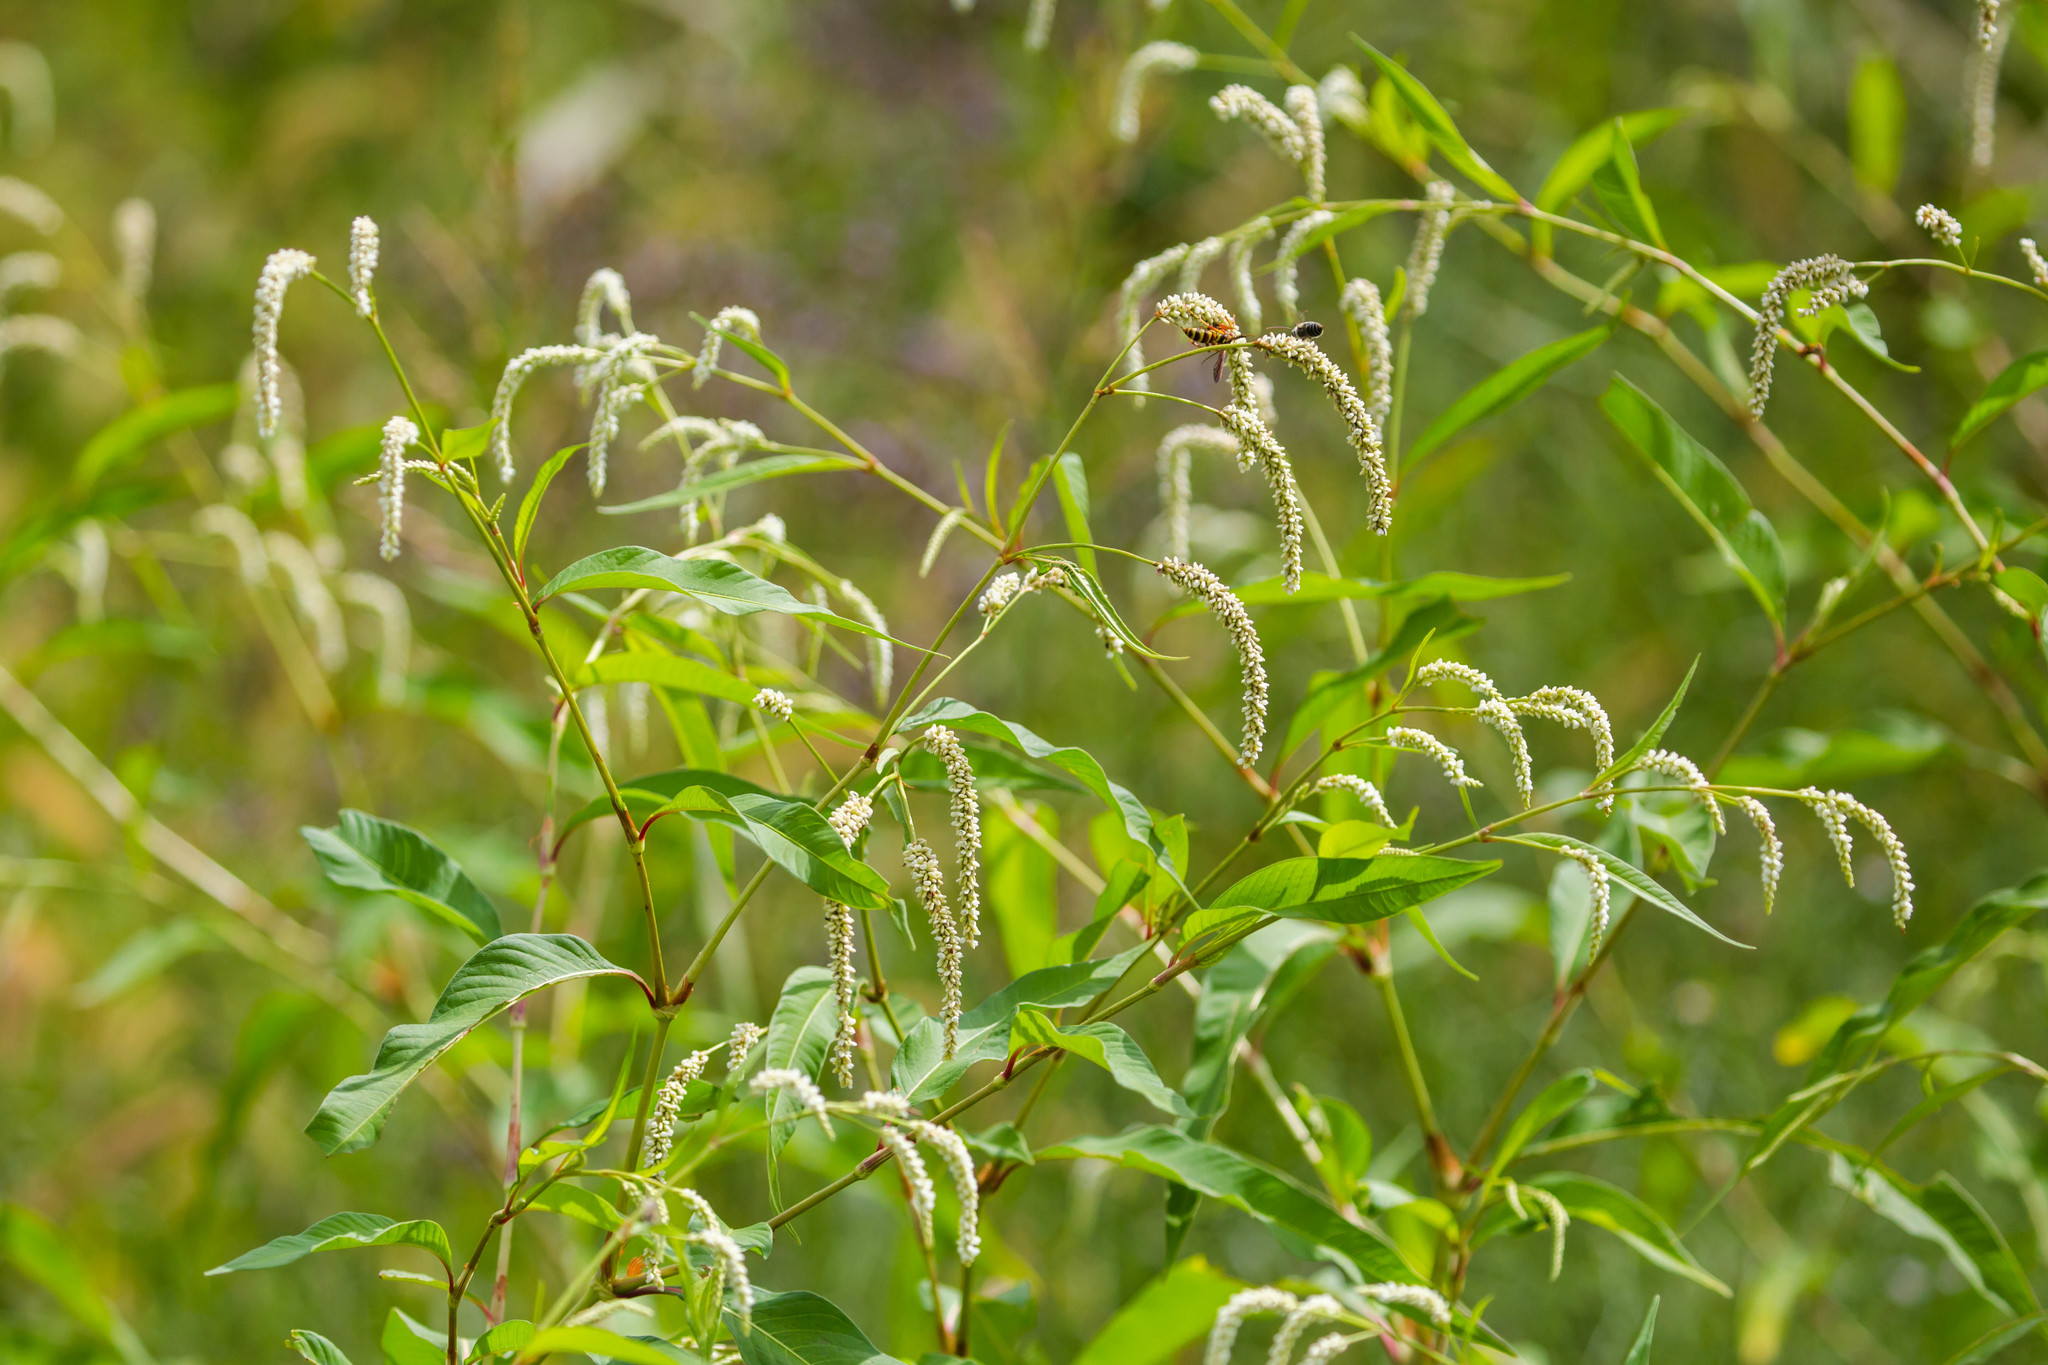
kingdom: Plantae
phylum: Tracheophyta
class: Magnoliopsida
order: Caryophyllales
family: Polygonaceae
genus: Persicaria
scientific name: Persicaria lapathifolia
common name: Curlytop knotweed
